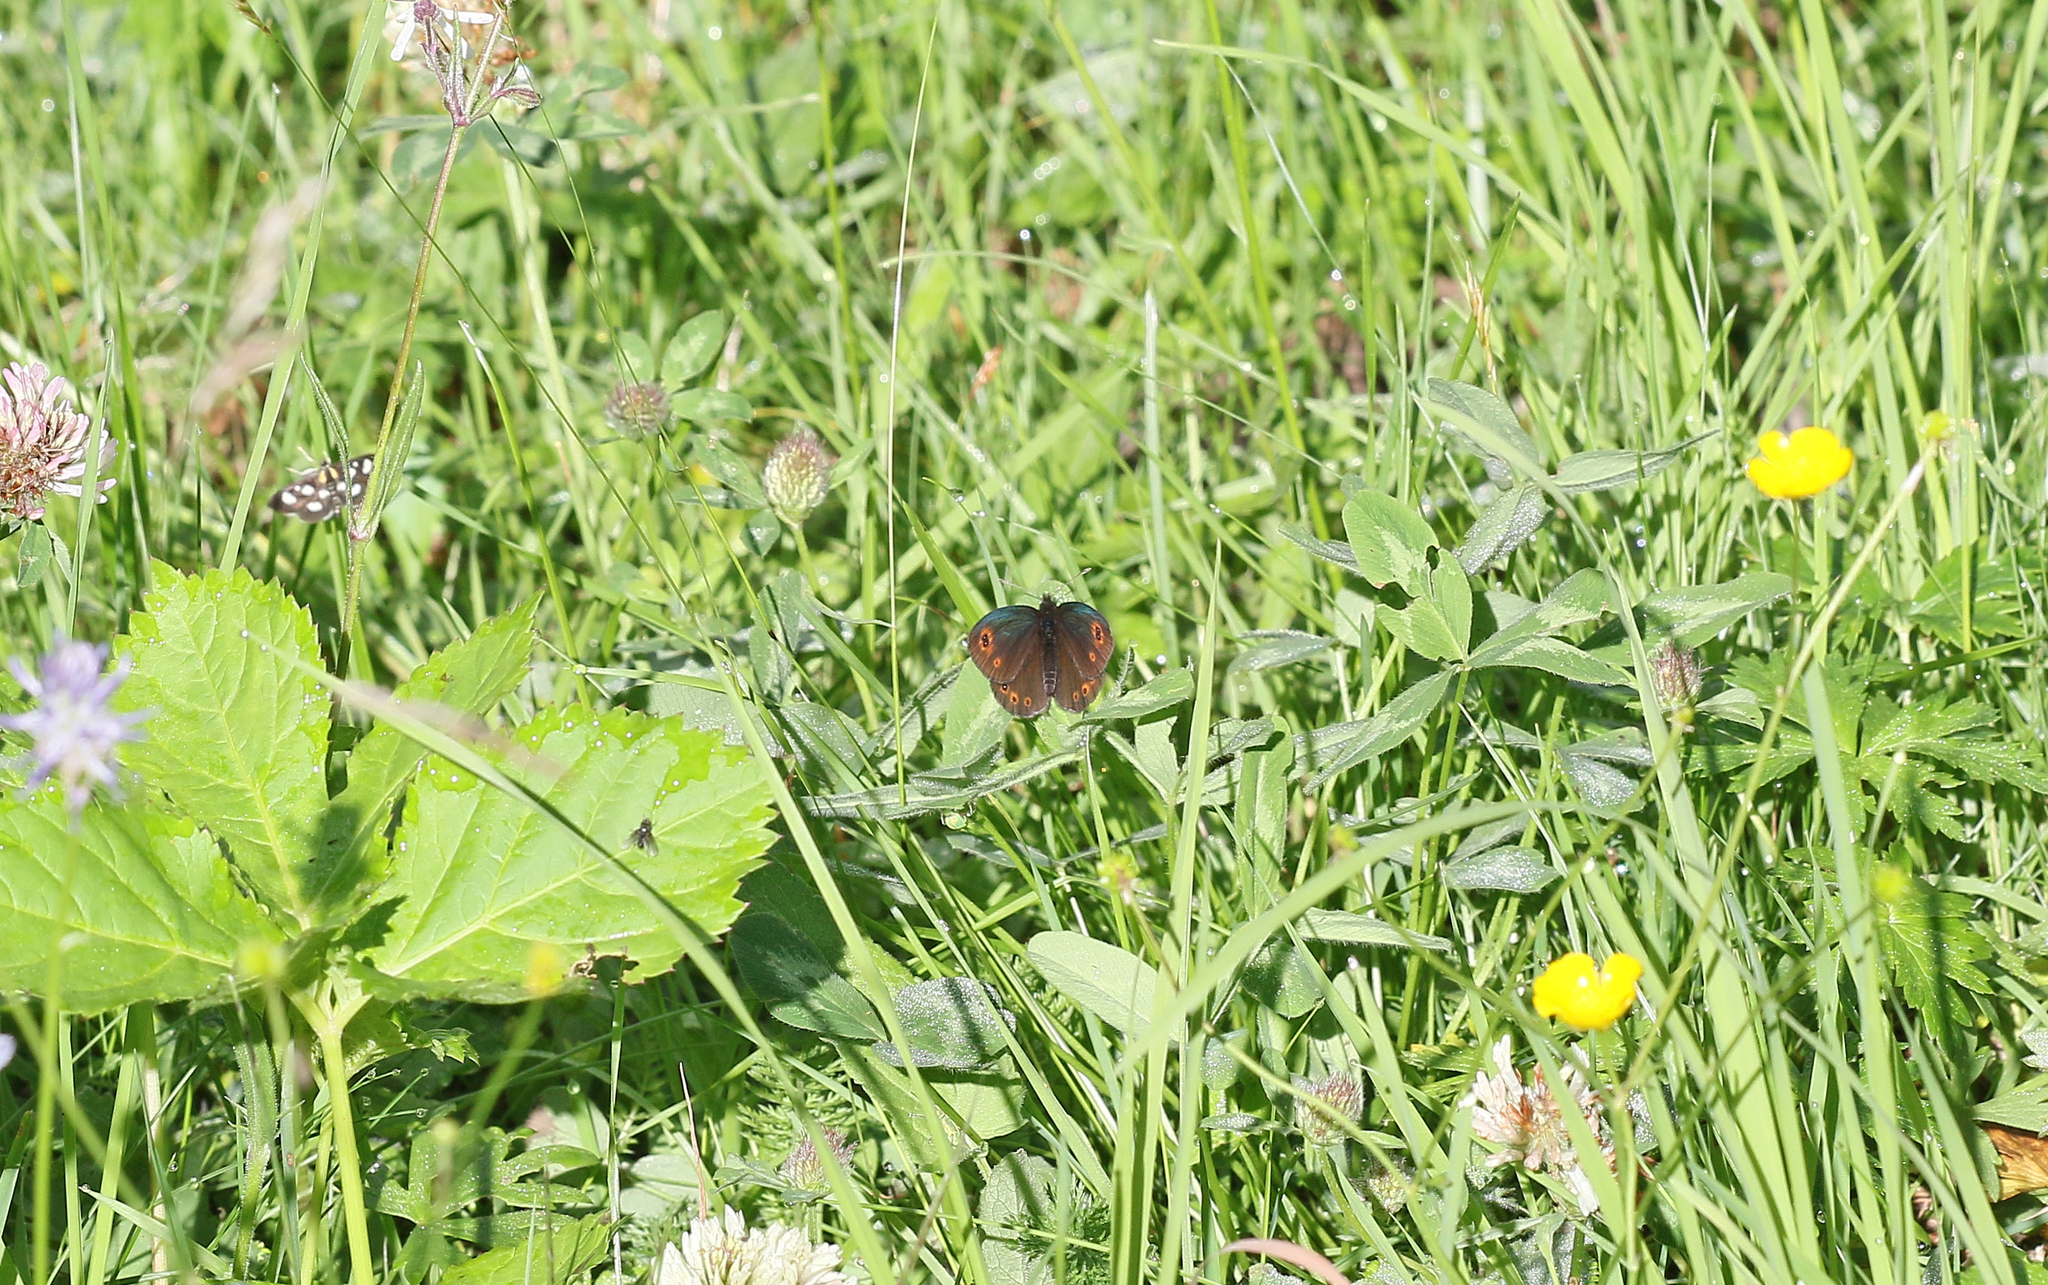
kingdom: Animalia
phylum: Arthropoda
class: Insecta
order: Lepidoptera
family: Nymphalidae
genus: Erebia
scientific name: Erebia medusa
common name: Woodland ringlet
